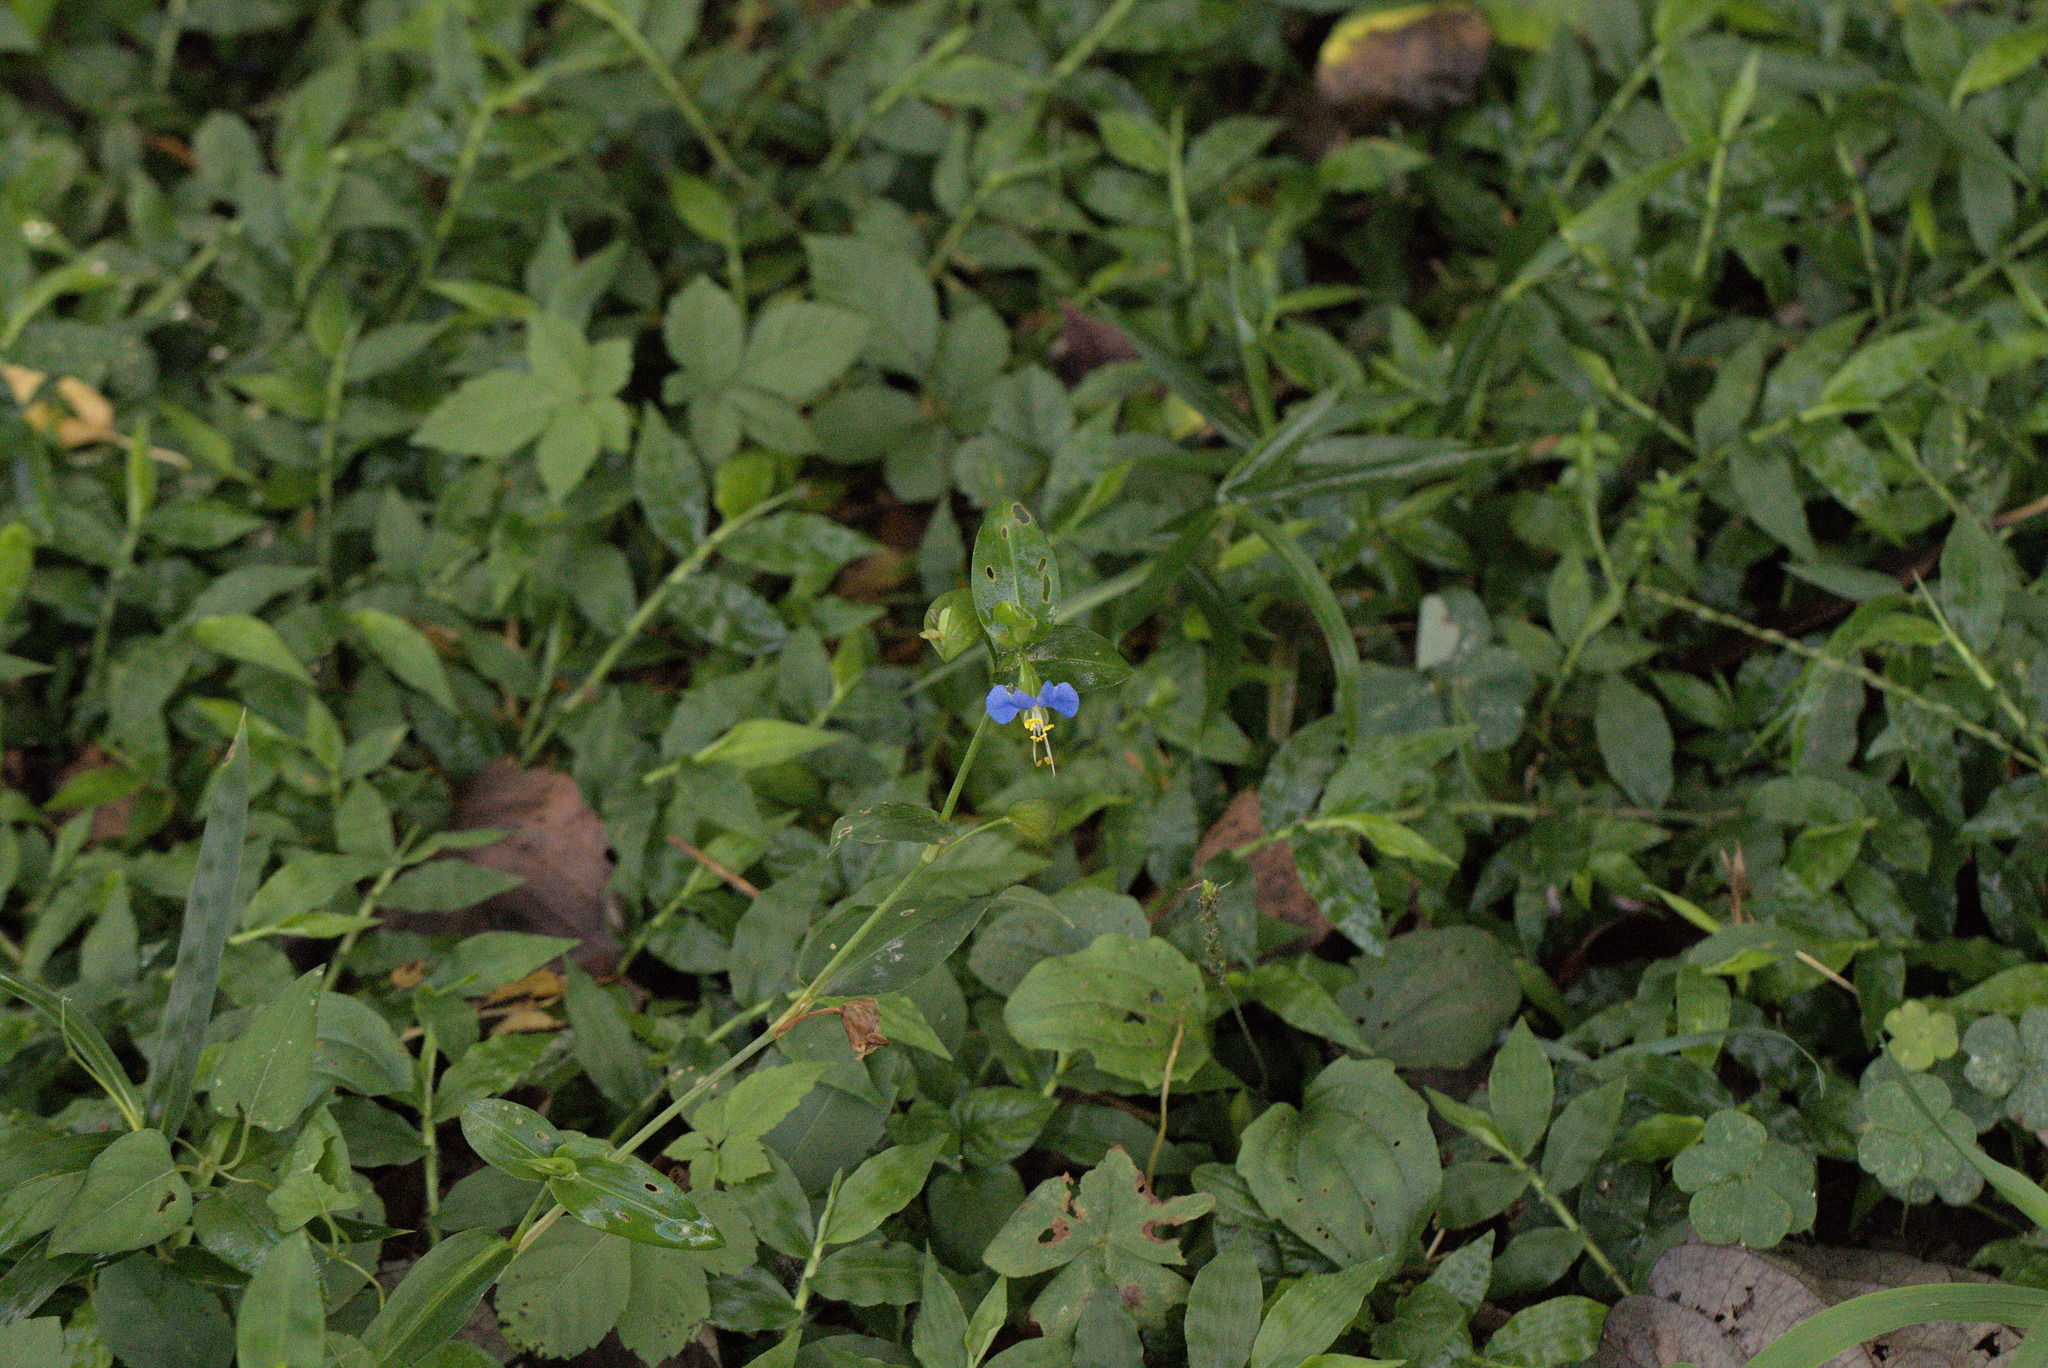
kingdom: Plantae
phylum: Tracheophyta
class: Liliopsida
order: Commelinales
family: Commelinaceae
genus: Commelina
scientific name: Commelina communis
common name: Asiatic dayflower
